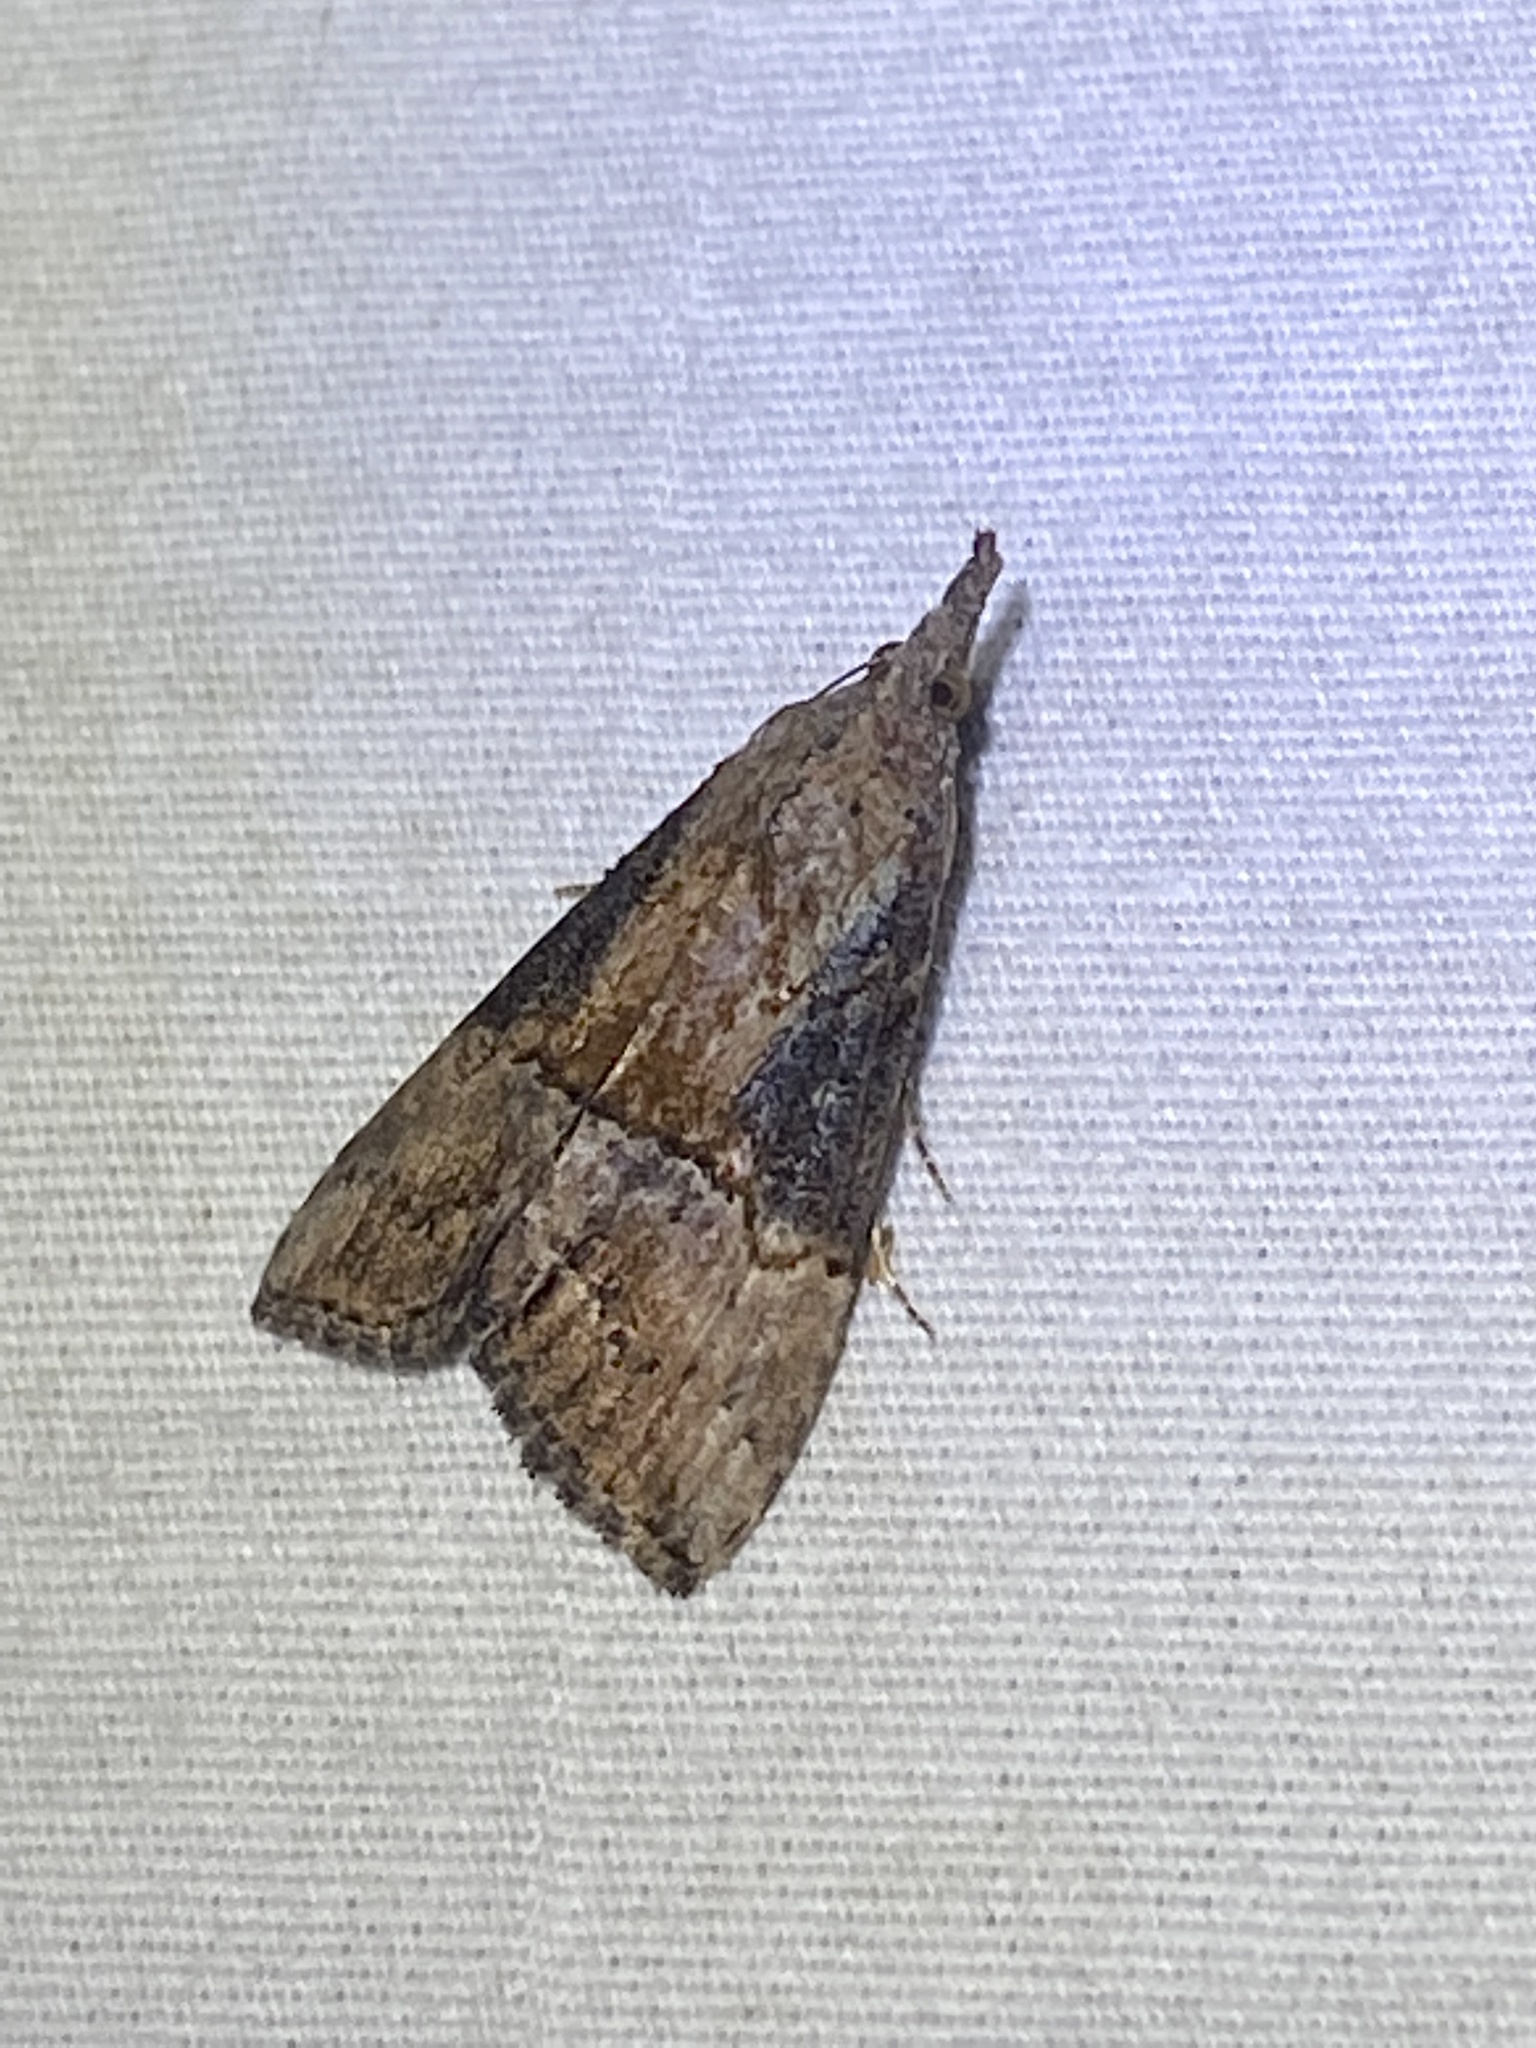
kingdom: Animalia
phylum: Arthropoda
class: Insecta
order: Lepidoptera
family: Erebidae
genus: Hypena
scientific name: Hypena scabra
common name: Green cloverworm
